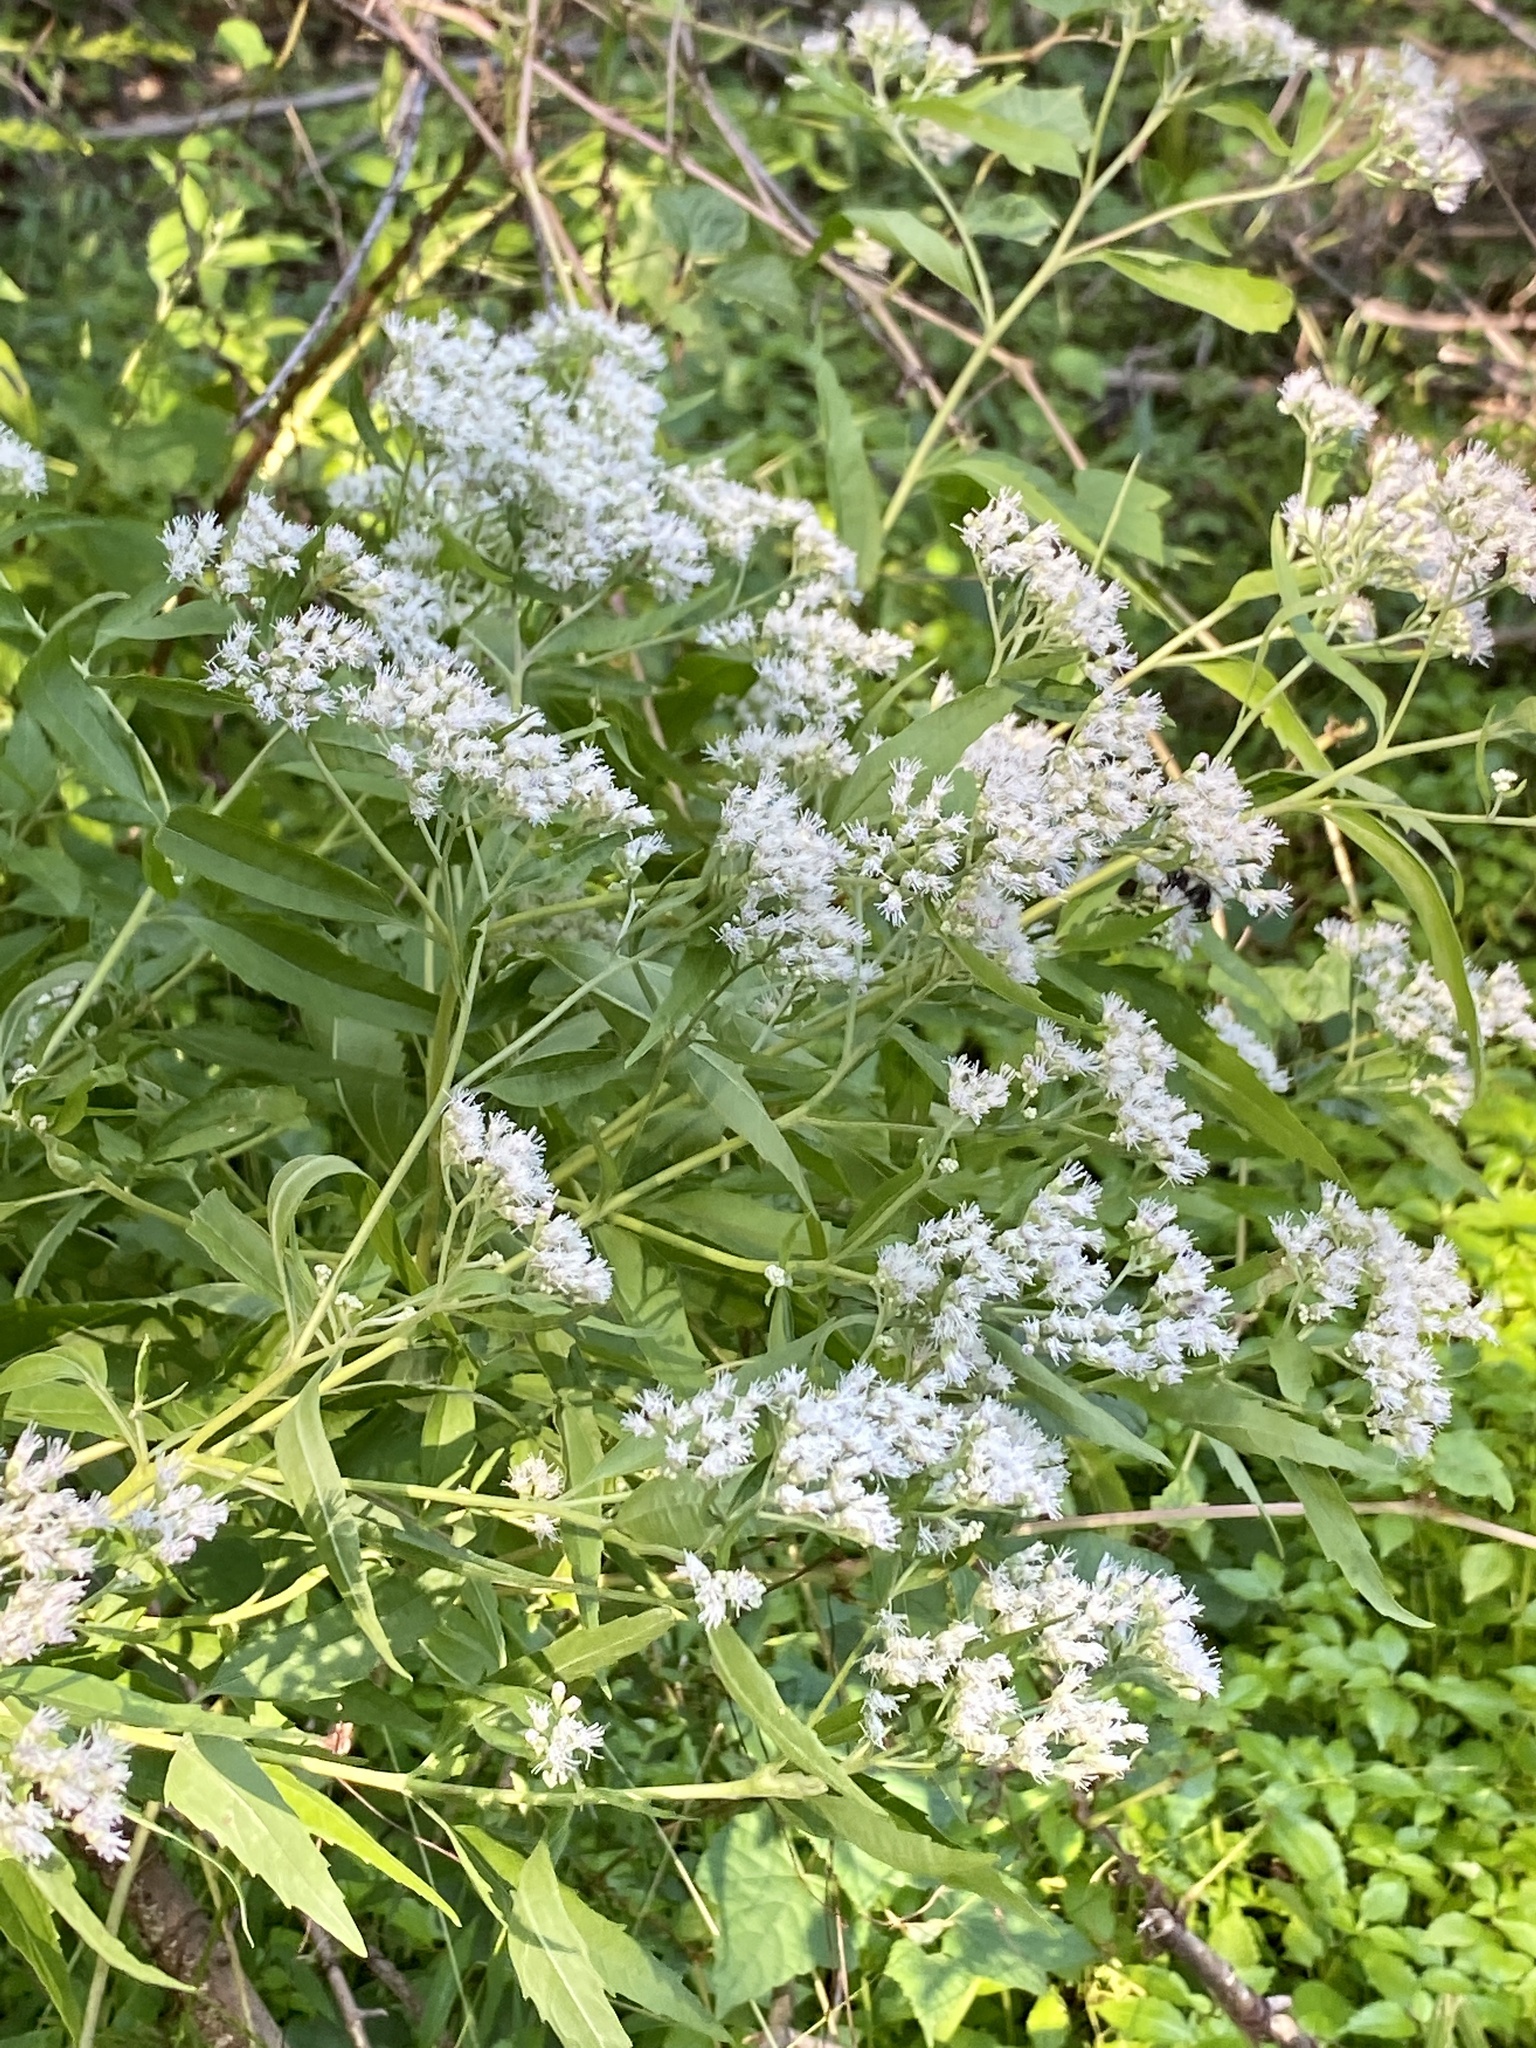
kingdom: Plantae
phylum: Tracheophyta
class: Magnoliopsida
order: Asterales
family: Asteraceae
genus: Eupatorium
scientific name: Eupatorium serotinum
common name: Late boneset
